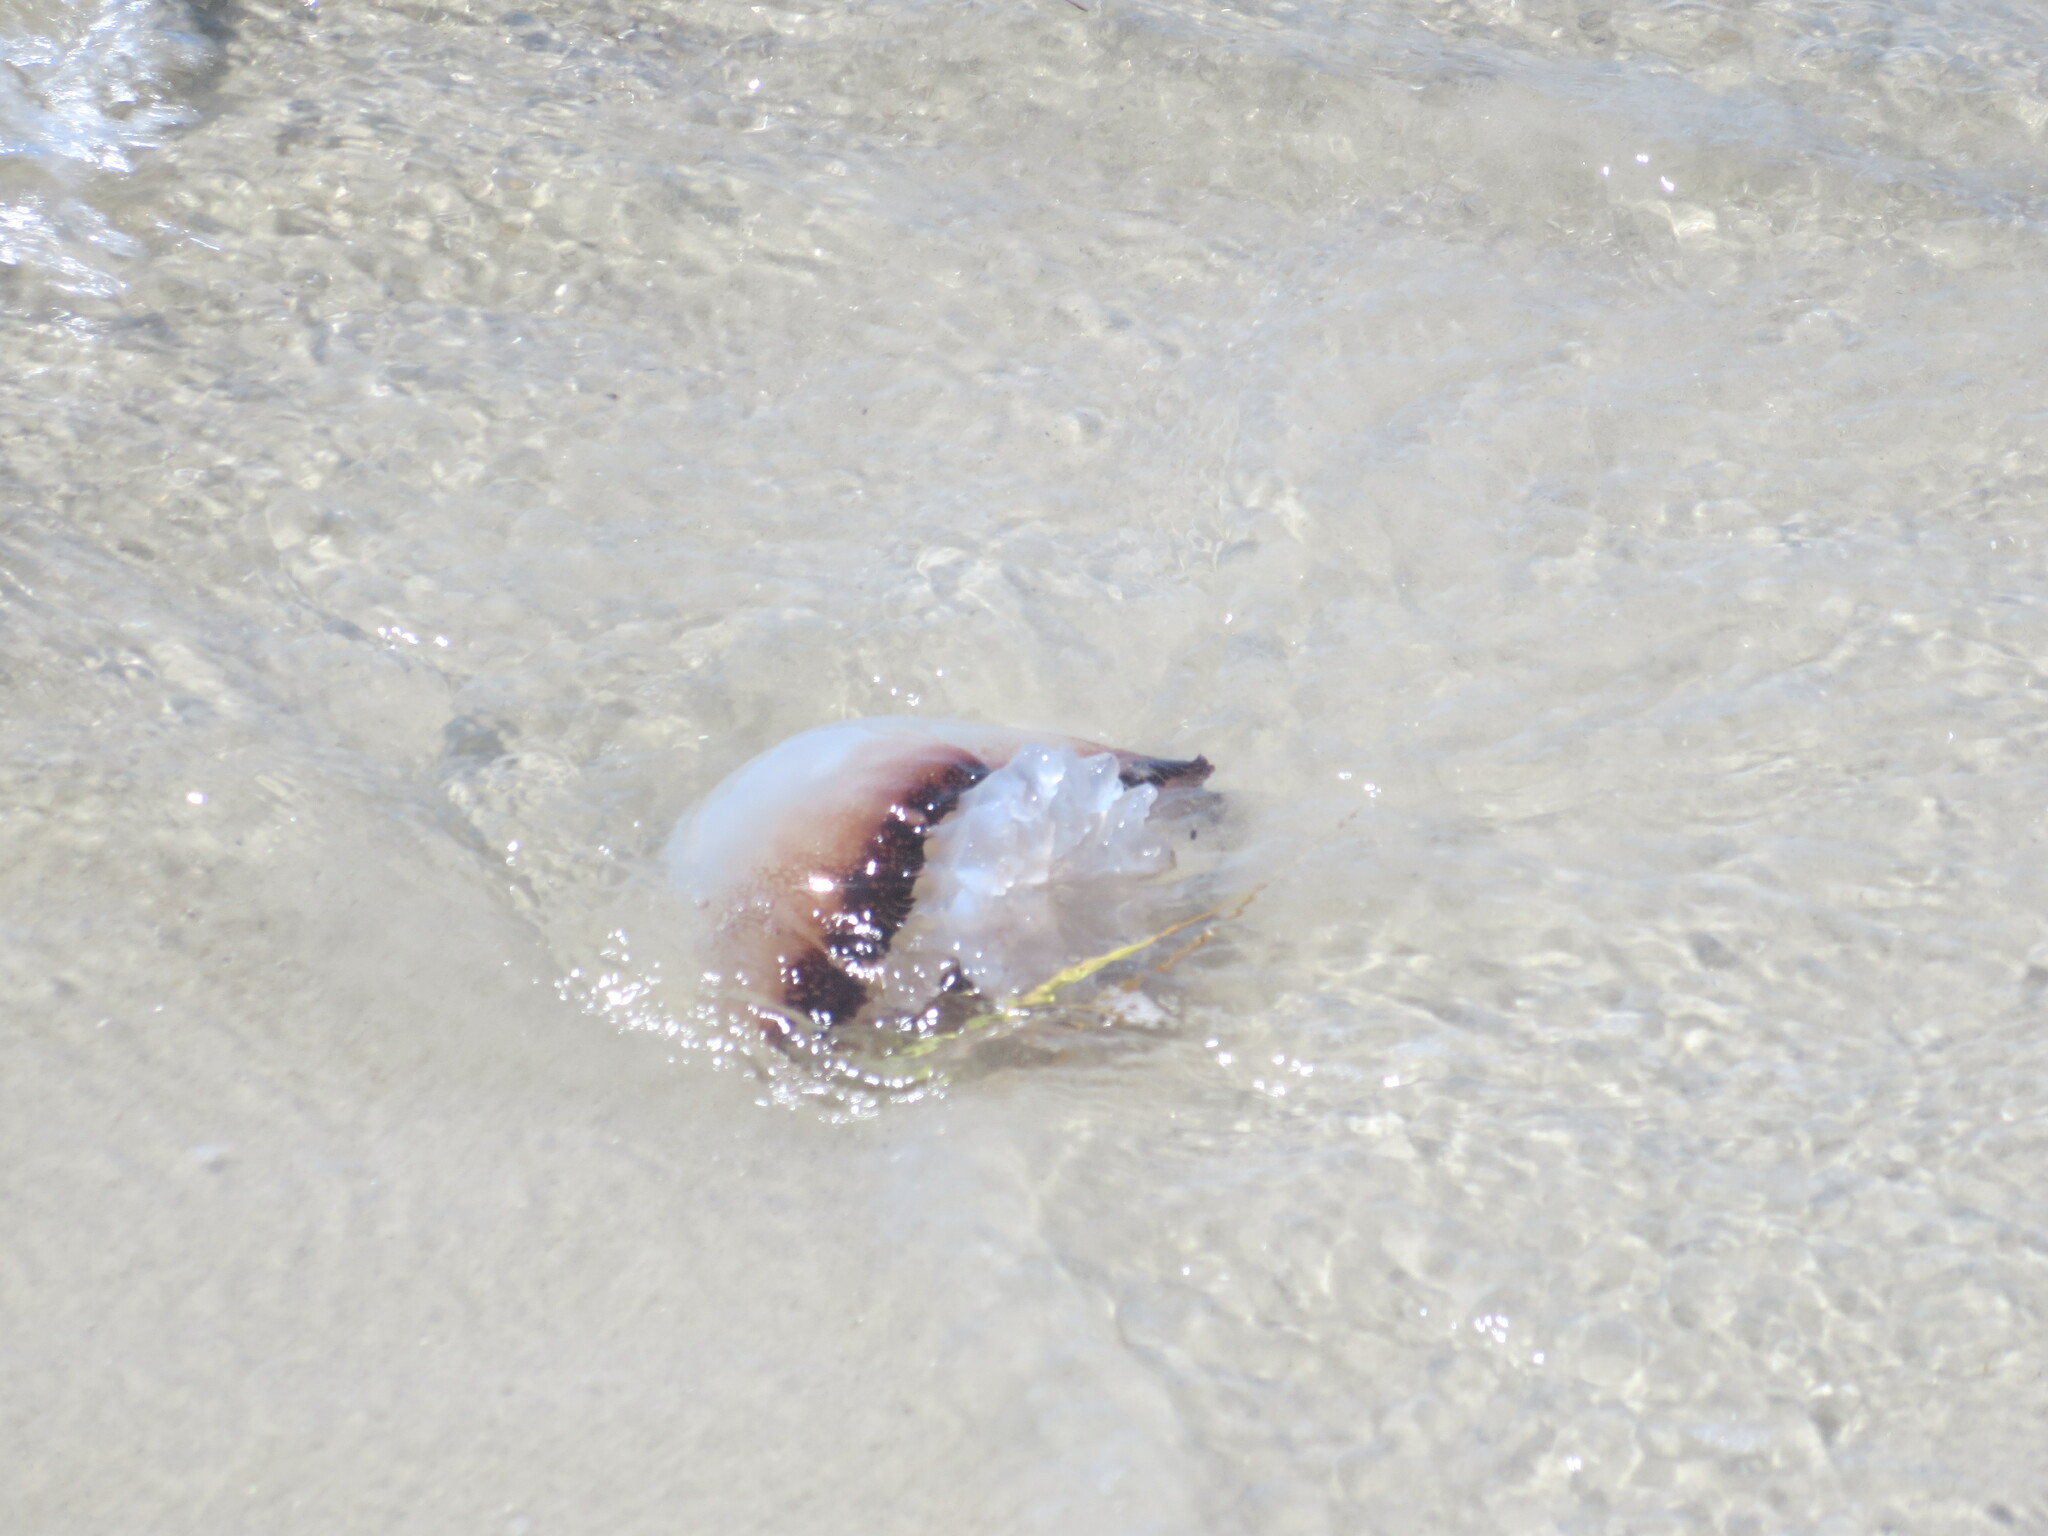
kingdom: Animalia
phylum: Cnidaria
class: Scyphozoa
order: Rhizostomeae
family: Stomolophidae
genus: Stomolophus
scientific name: Stomolophus meleagris
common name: Cabbagehead
